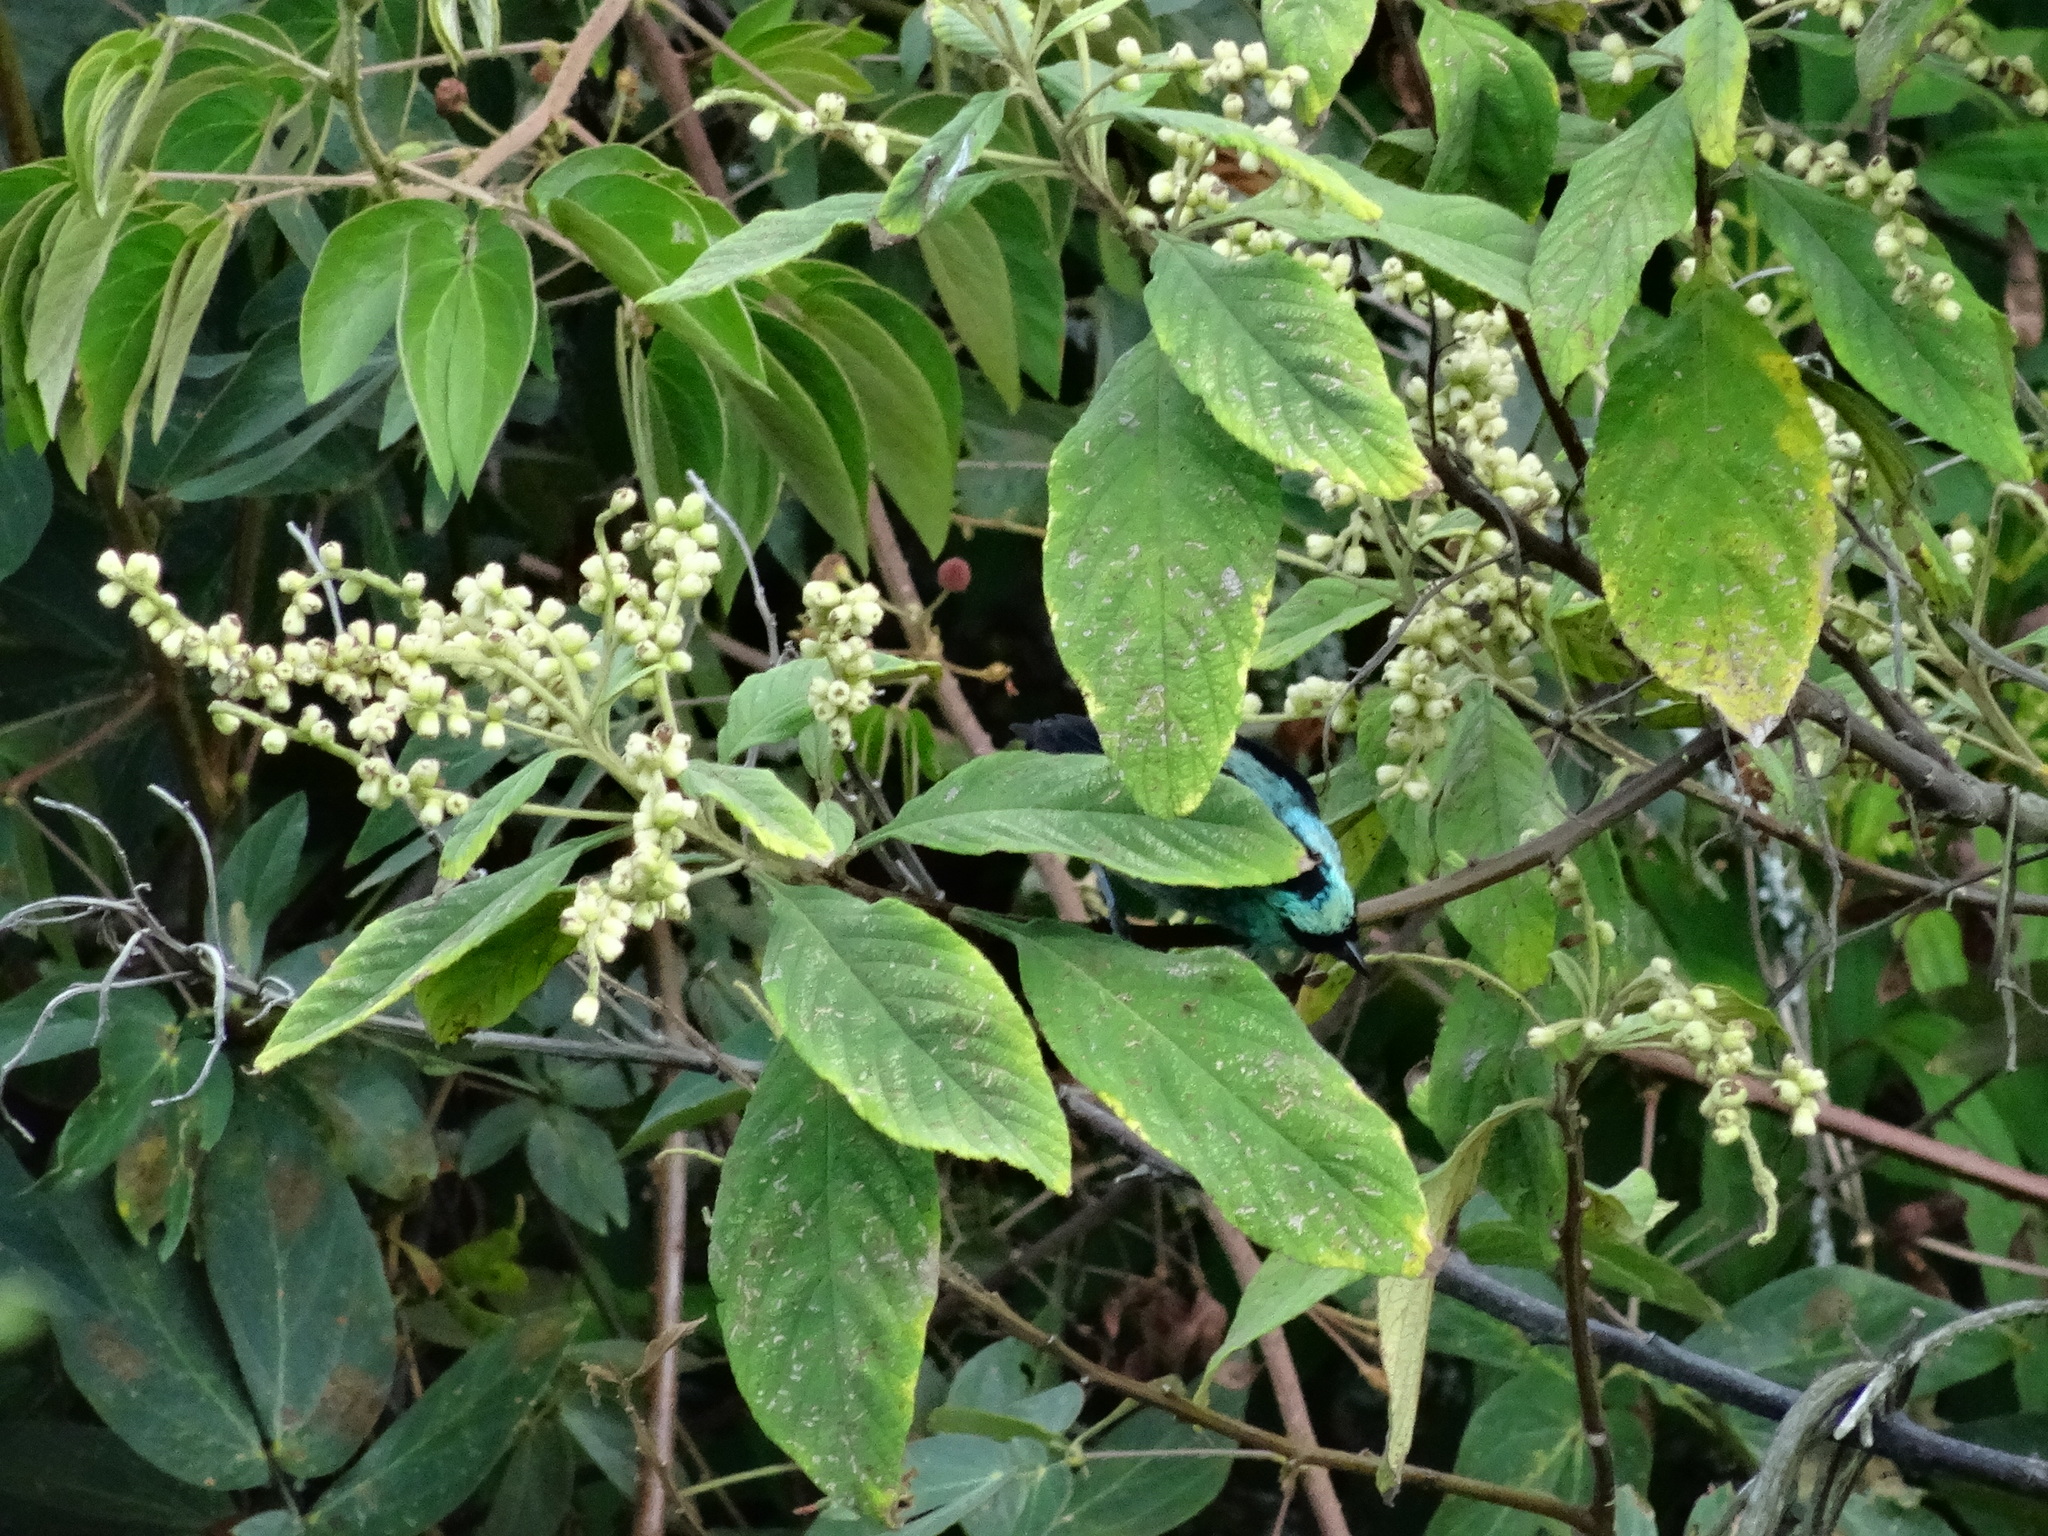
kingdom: Animalia
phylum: Chordata
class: Aves
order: Passeriformes
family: Thraupidae
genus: Tangara
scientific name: Tangara labradorides
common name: Metallic-green tanager
